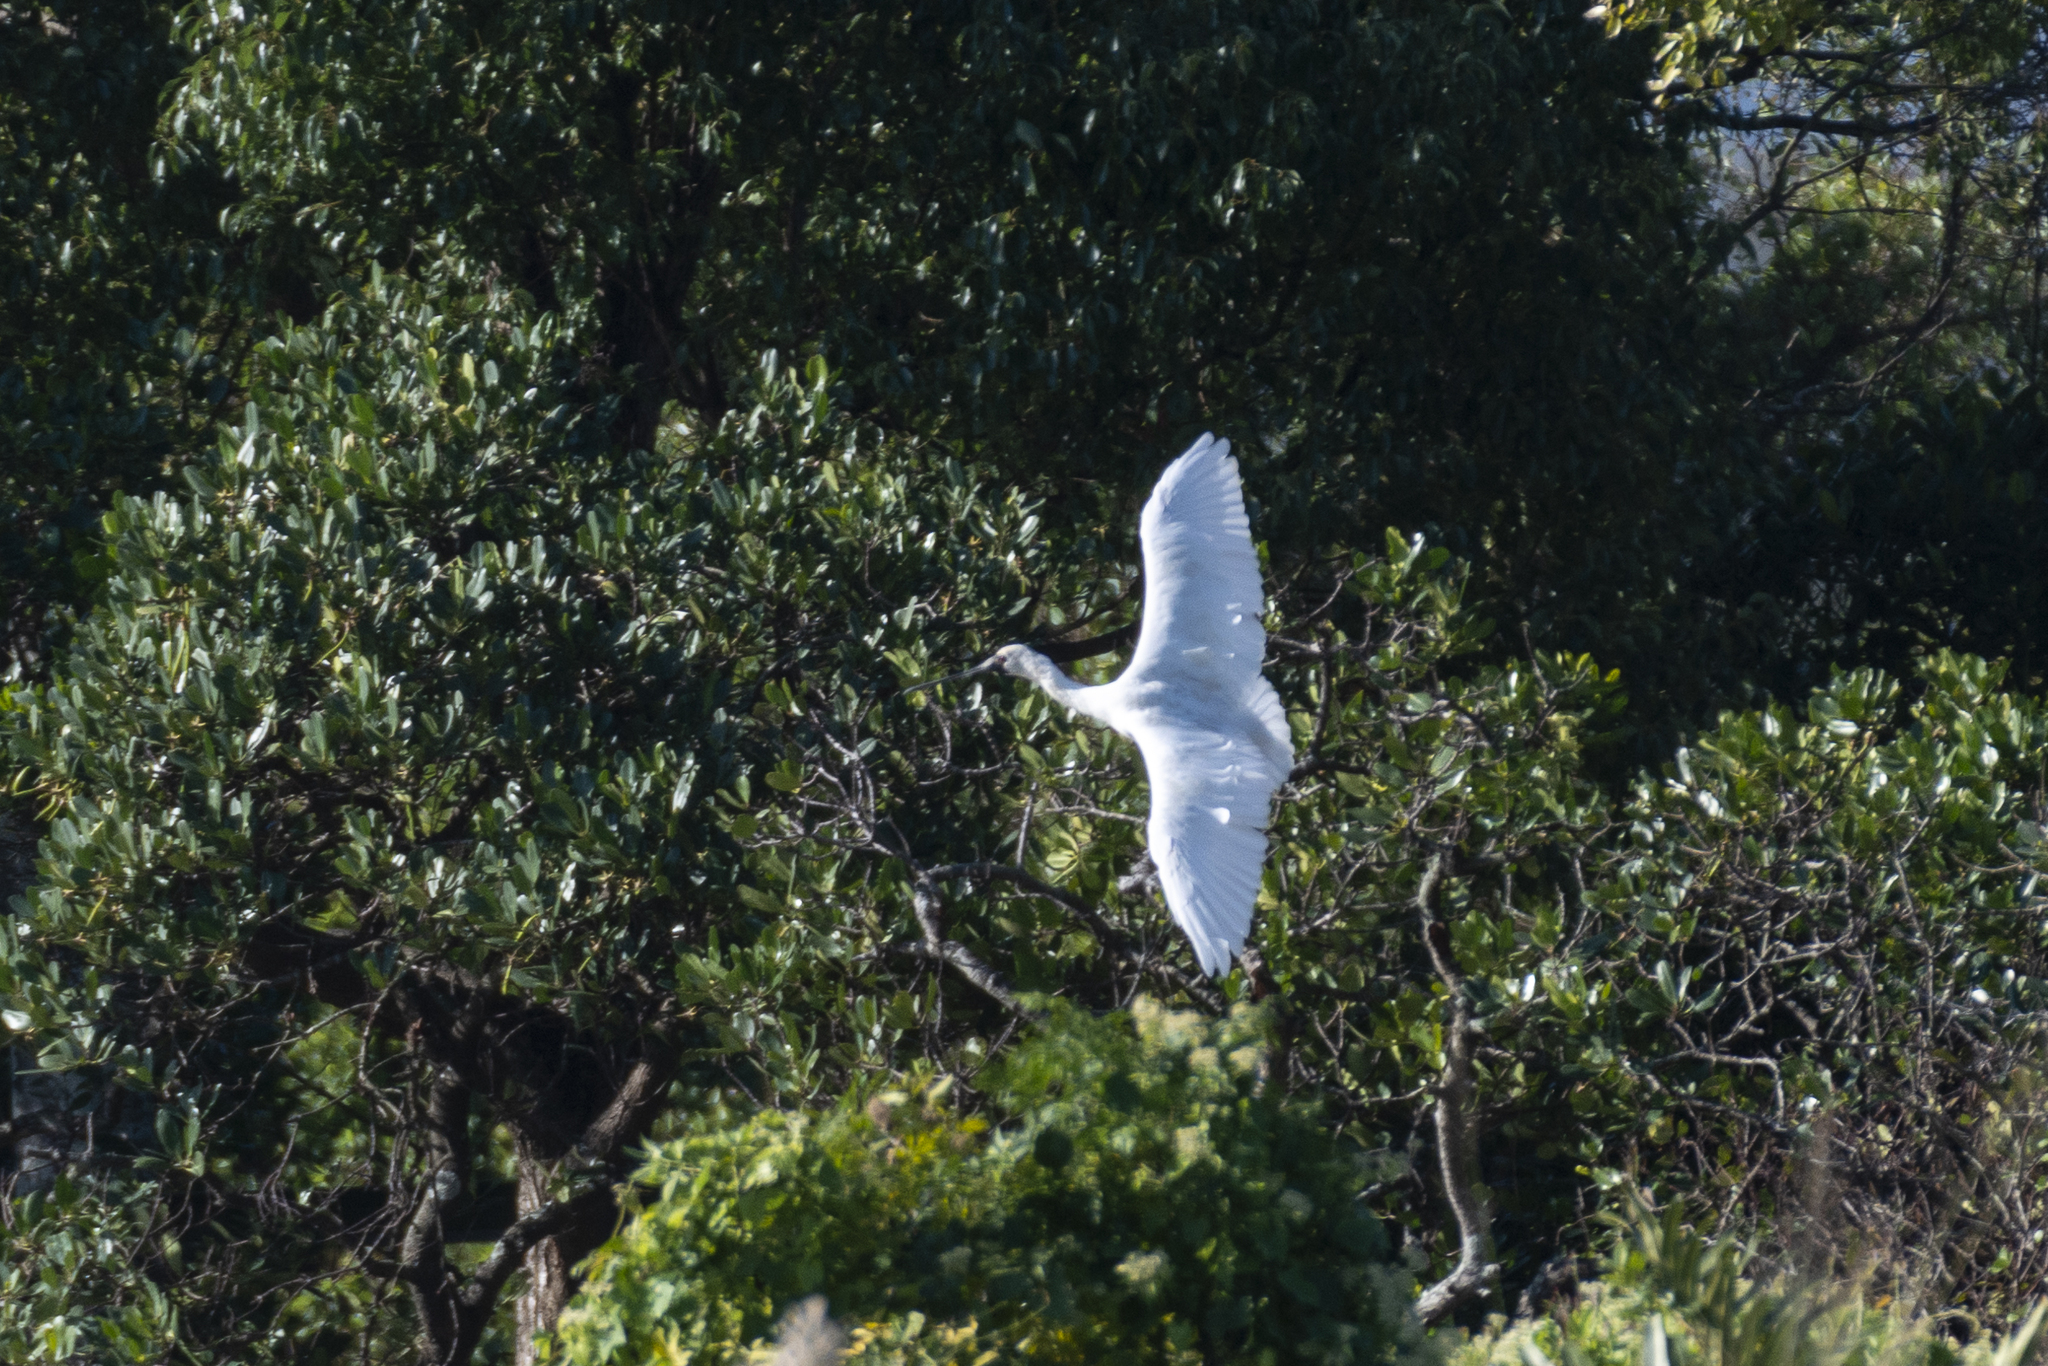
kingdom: Animalia
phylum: Chordata
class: Aves
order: Pelecaniformes
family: Threskiornithidae
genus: Platalea
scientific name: Platalea minor
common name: Black-faced spoonbill
